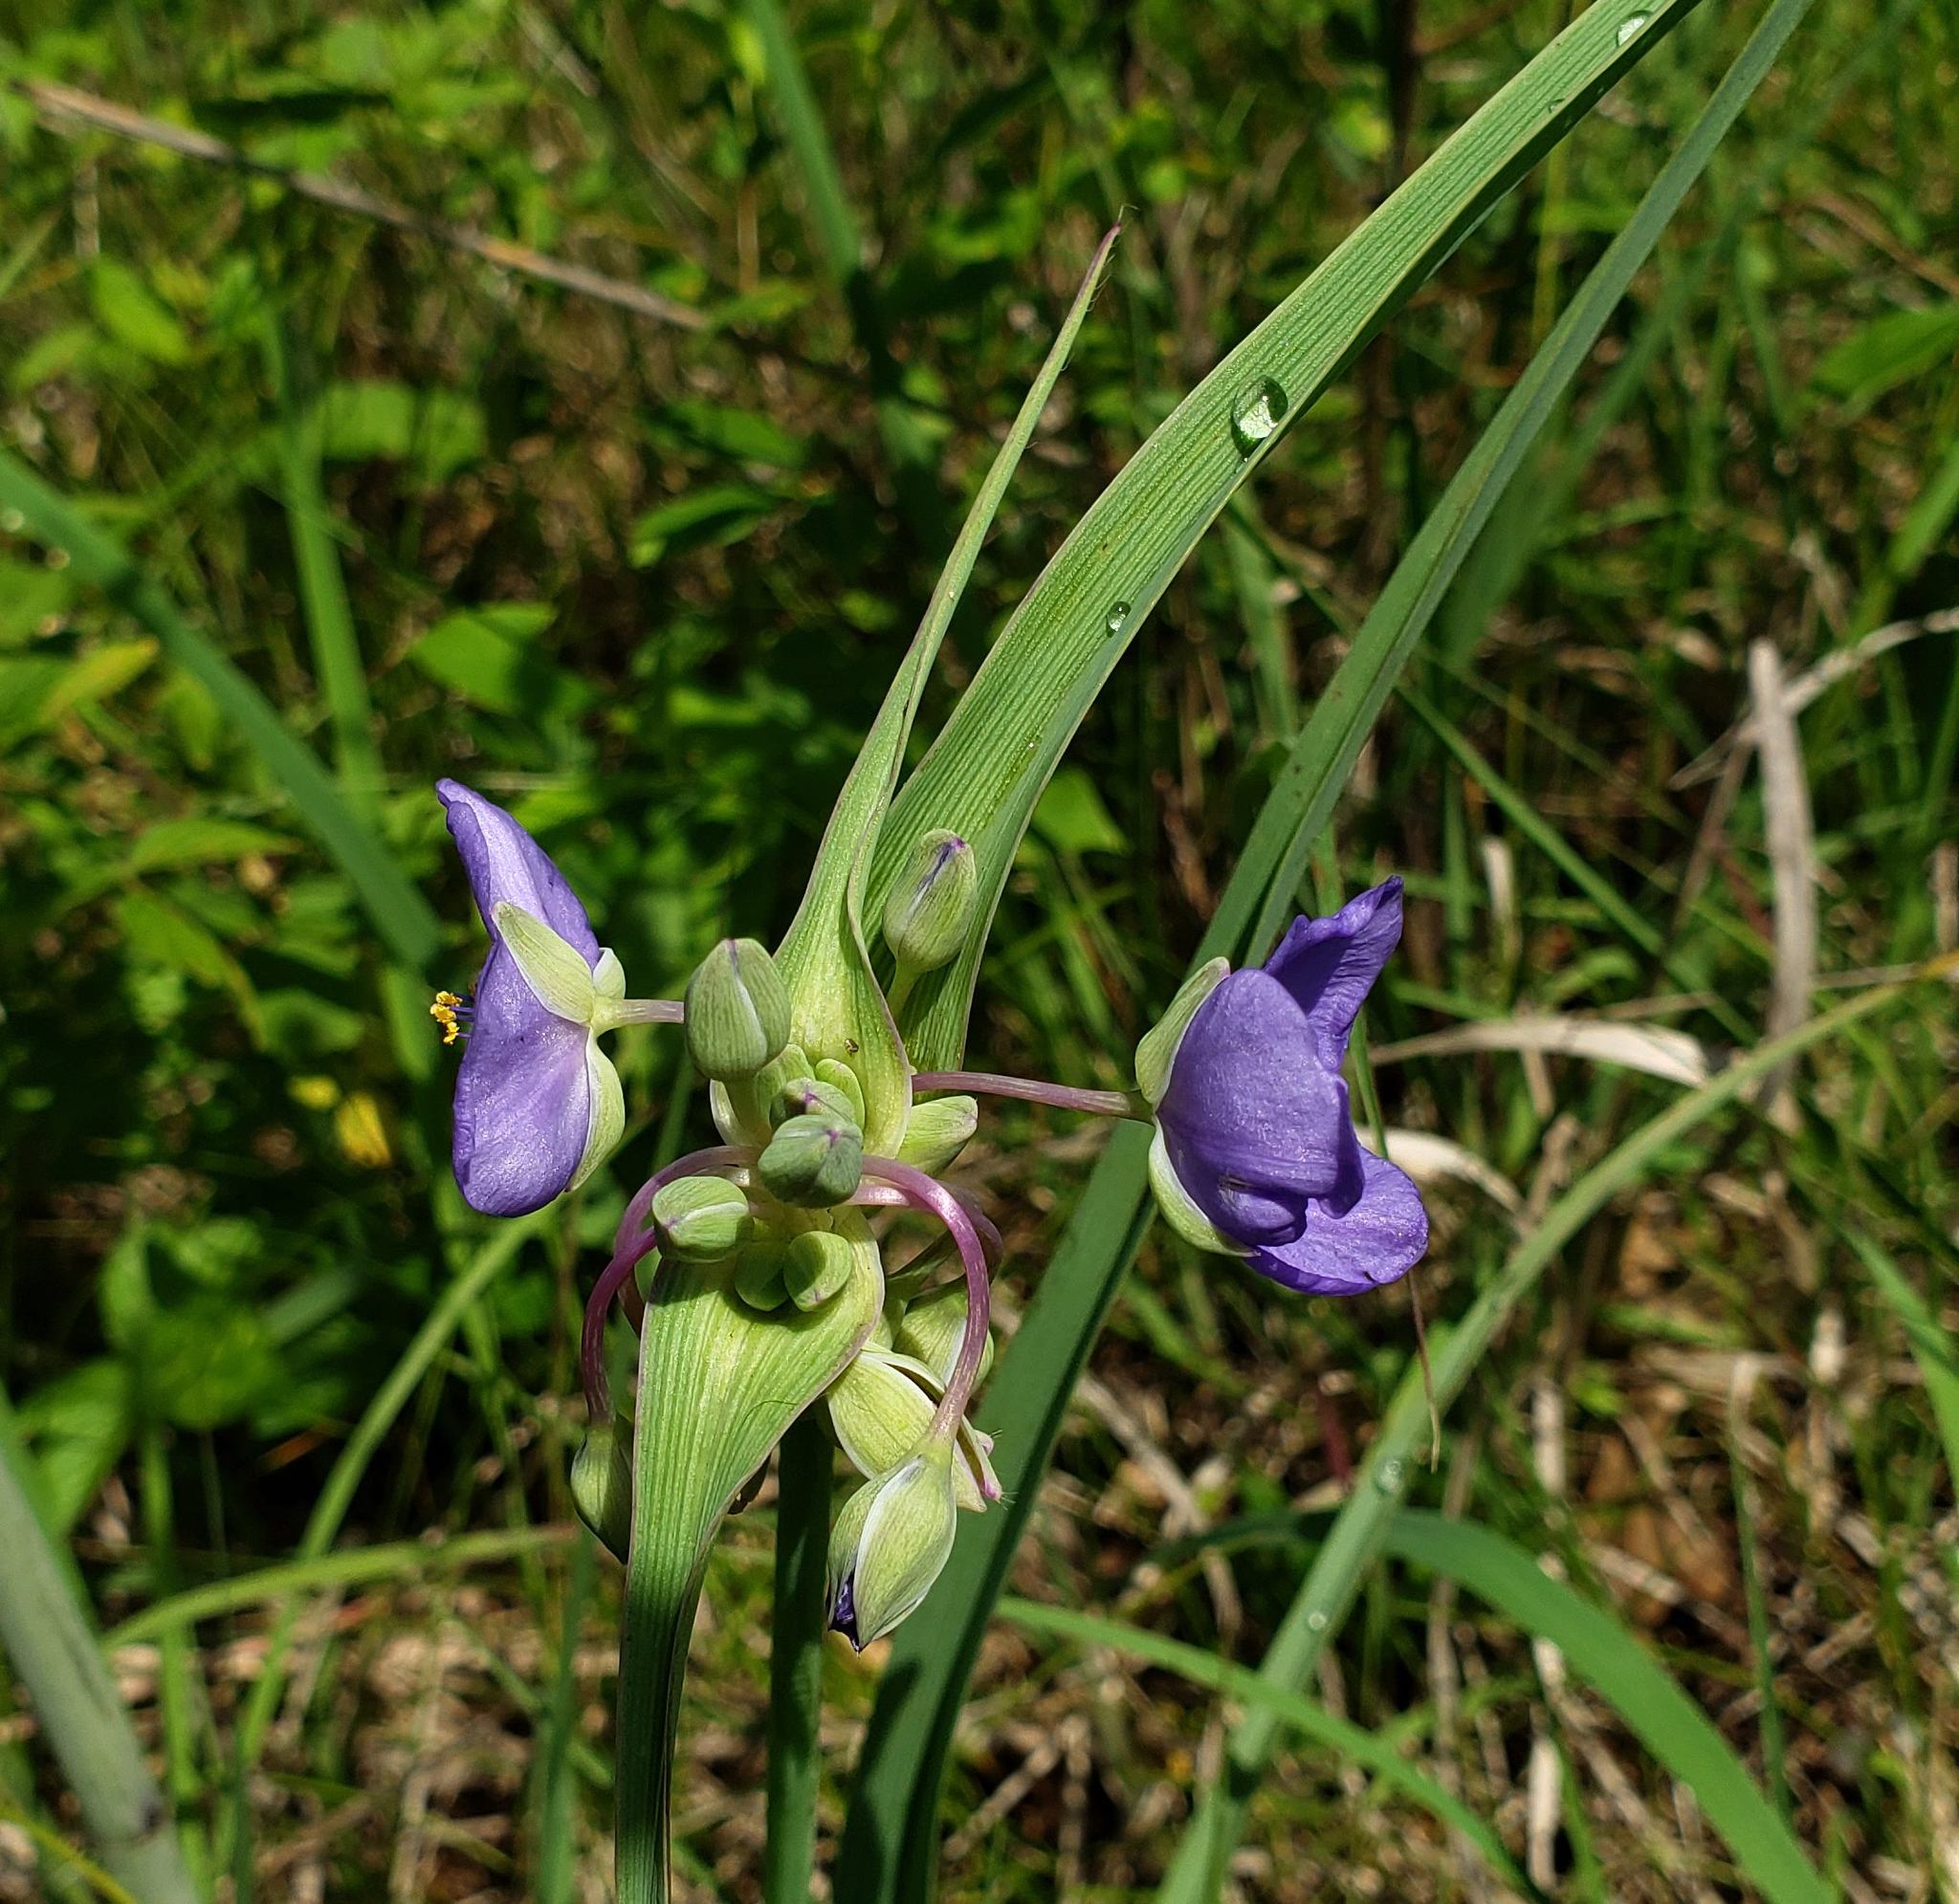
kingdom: Plantae
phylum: Tracheophyta
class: Liliopsida
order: Commelinales
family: Commelinaceae
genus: Tradescantia
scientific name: Tradescantia ohiensis
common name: Ohio spiderwort
